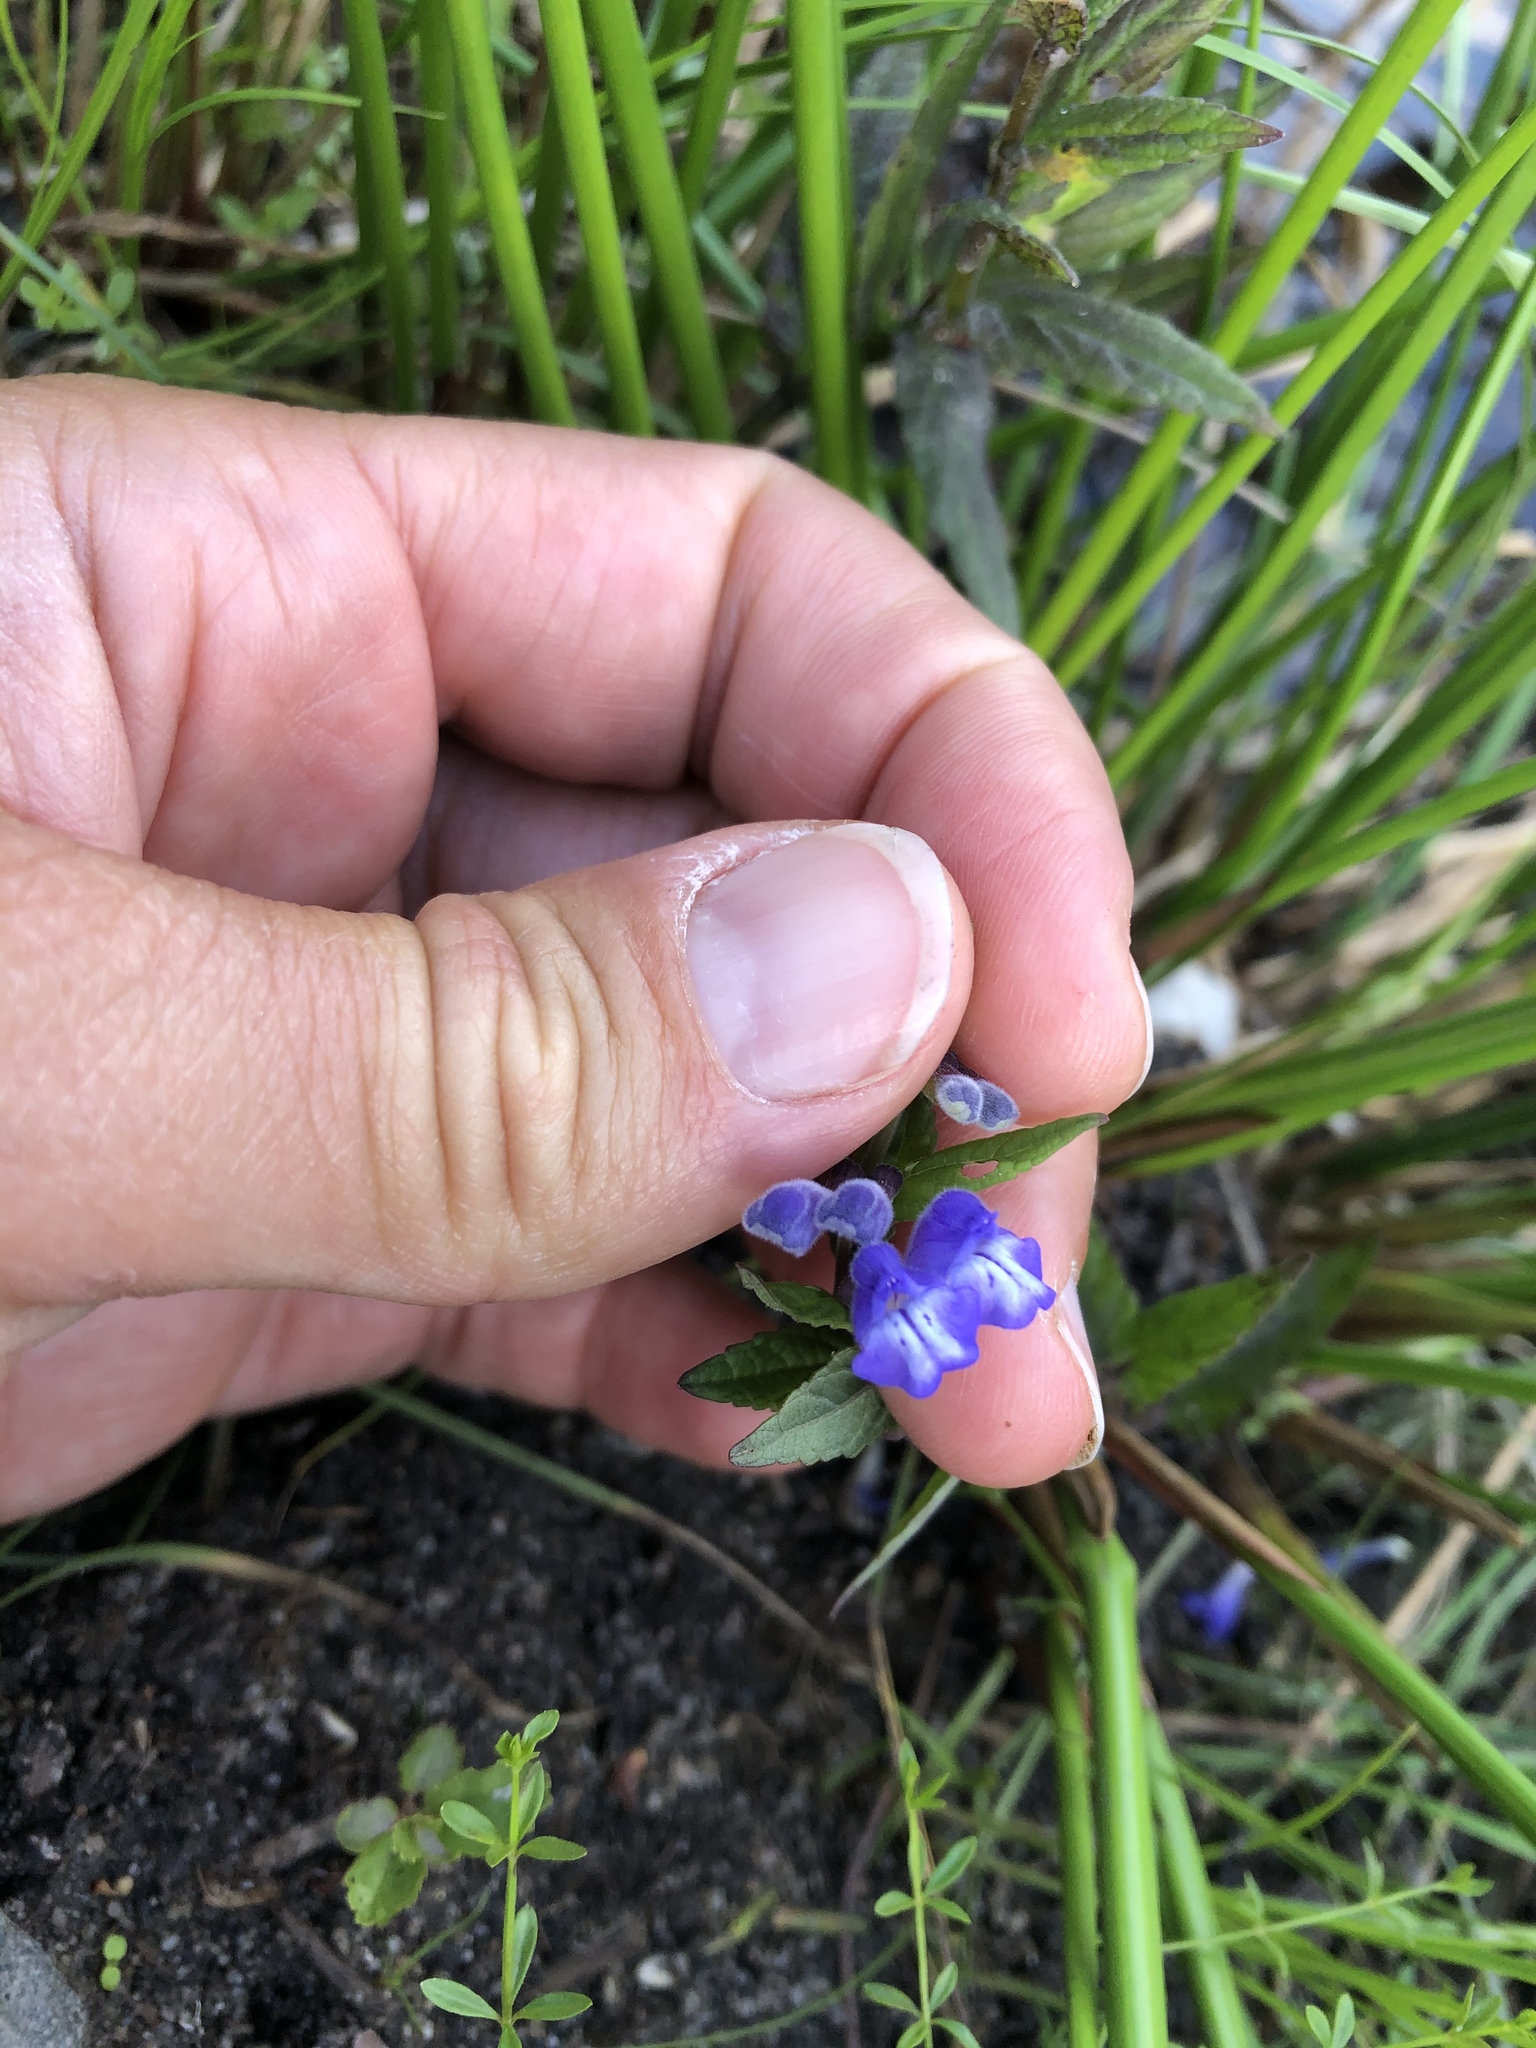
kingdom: Plantae
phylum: Tracheophyta
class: Magnoliopsida
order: Lamiales
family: Lamiaceae
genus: Scutellaria
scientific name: Scutellaria galericulata
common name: Skullcap
